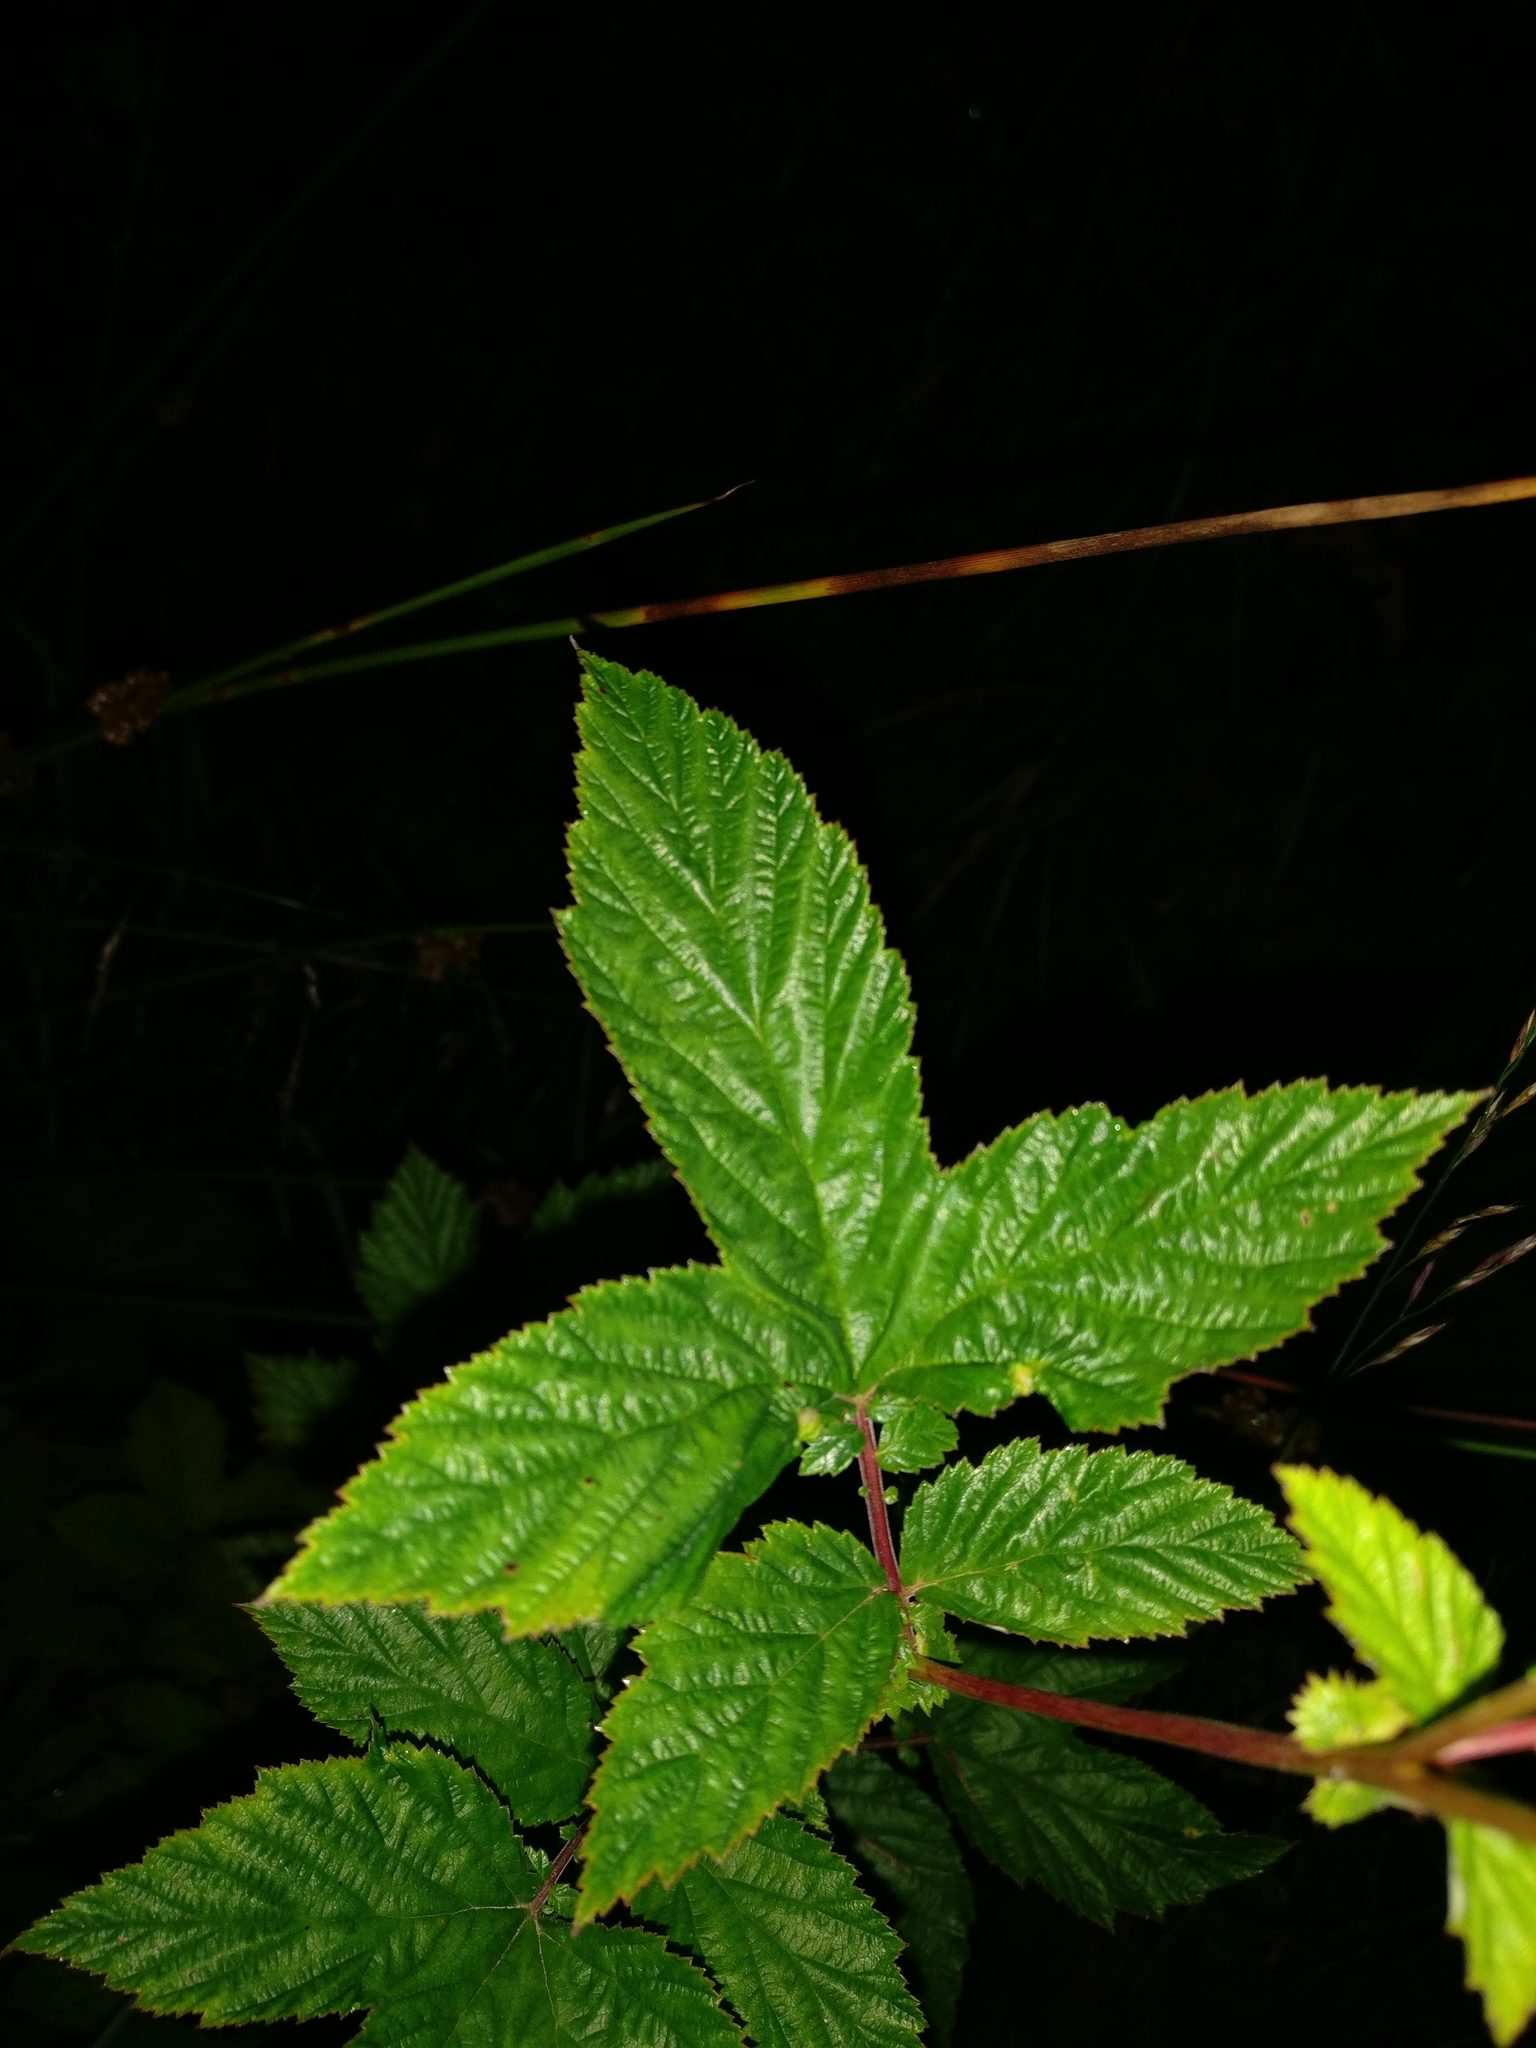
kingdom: Plantae
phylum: Tracheophyta
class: Magnoliopsida
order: Rosales
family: Rosaceae
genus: Filipendula
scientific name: Filipendula ulmaria
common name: Meadowsweet
